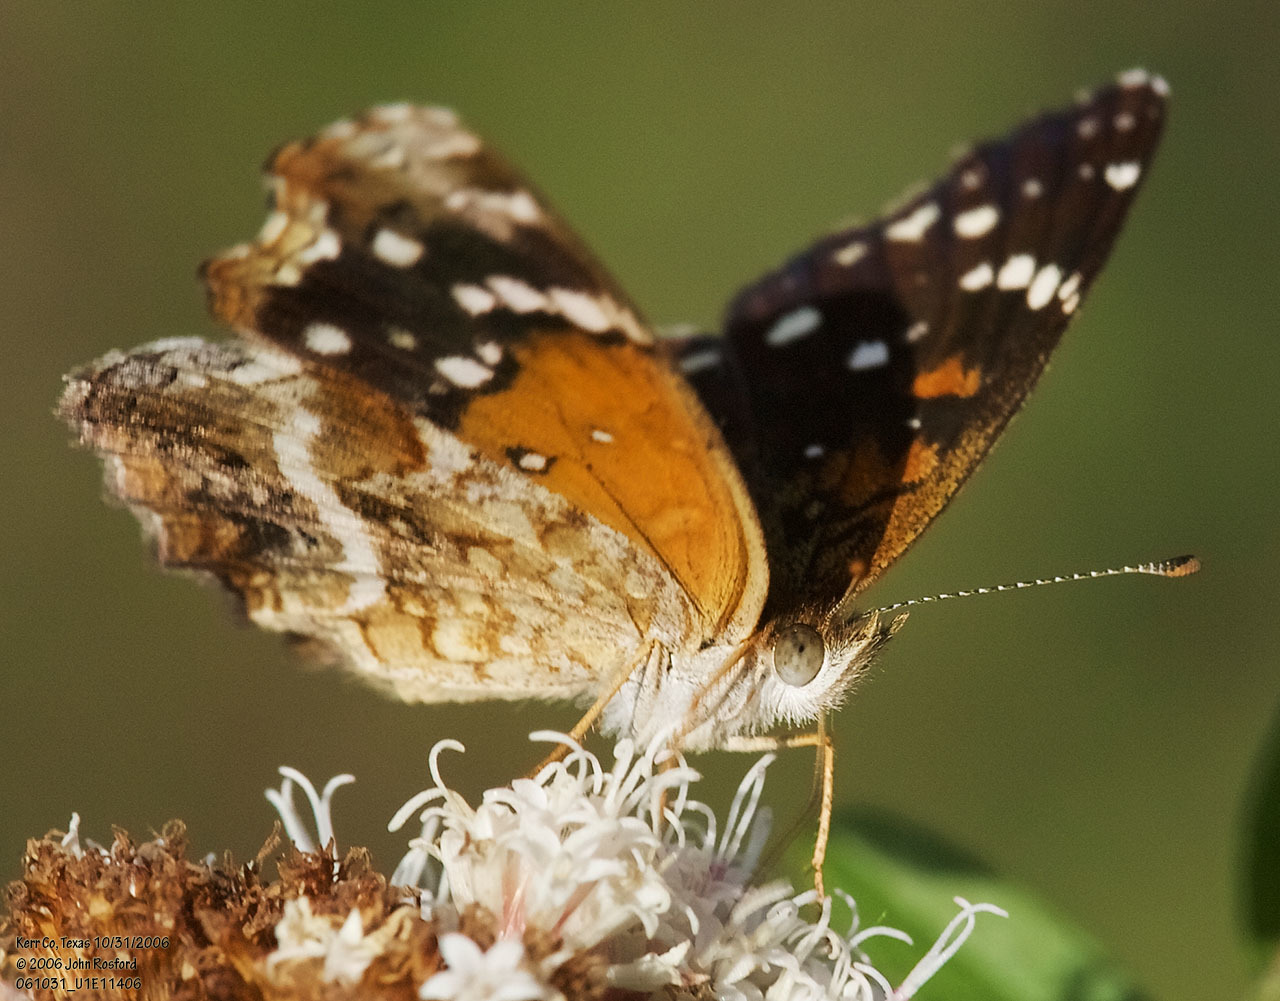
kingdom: Animalia
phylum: Arthropoda
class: Insecta
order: Lepidoptera
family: Nymphalidae
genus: Anthanassa
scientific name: Anthanassa texana
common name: Texan crescent
